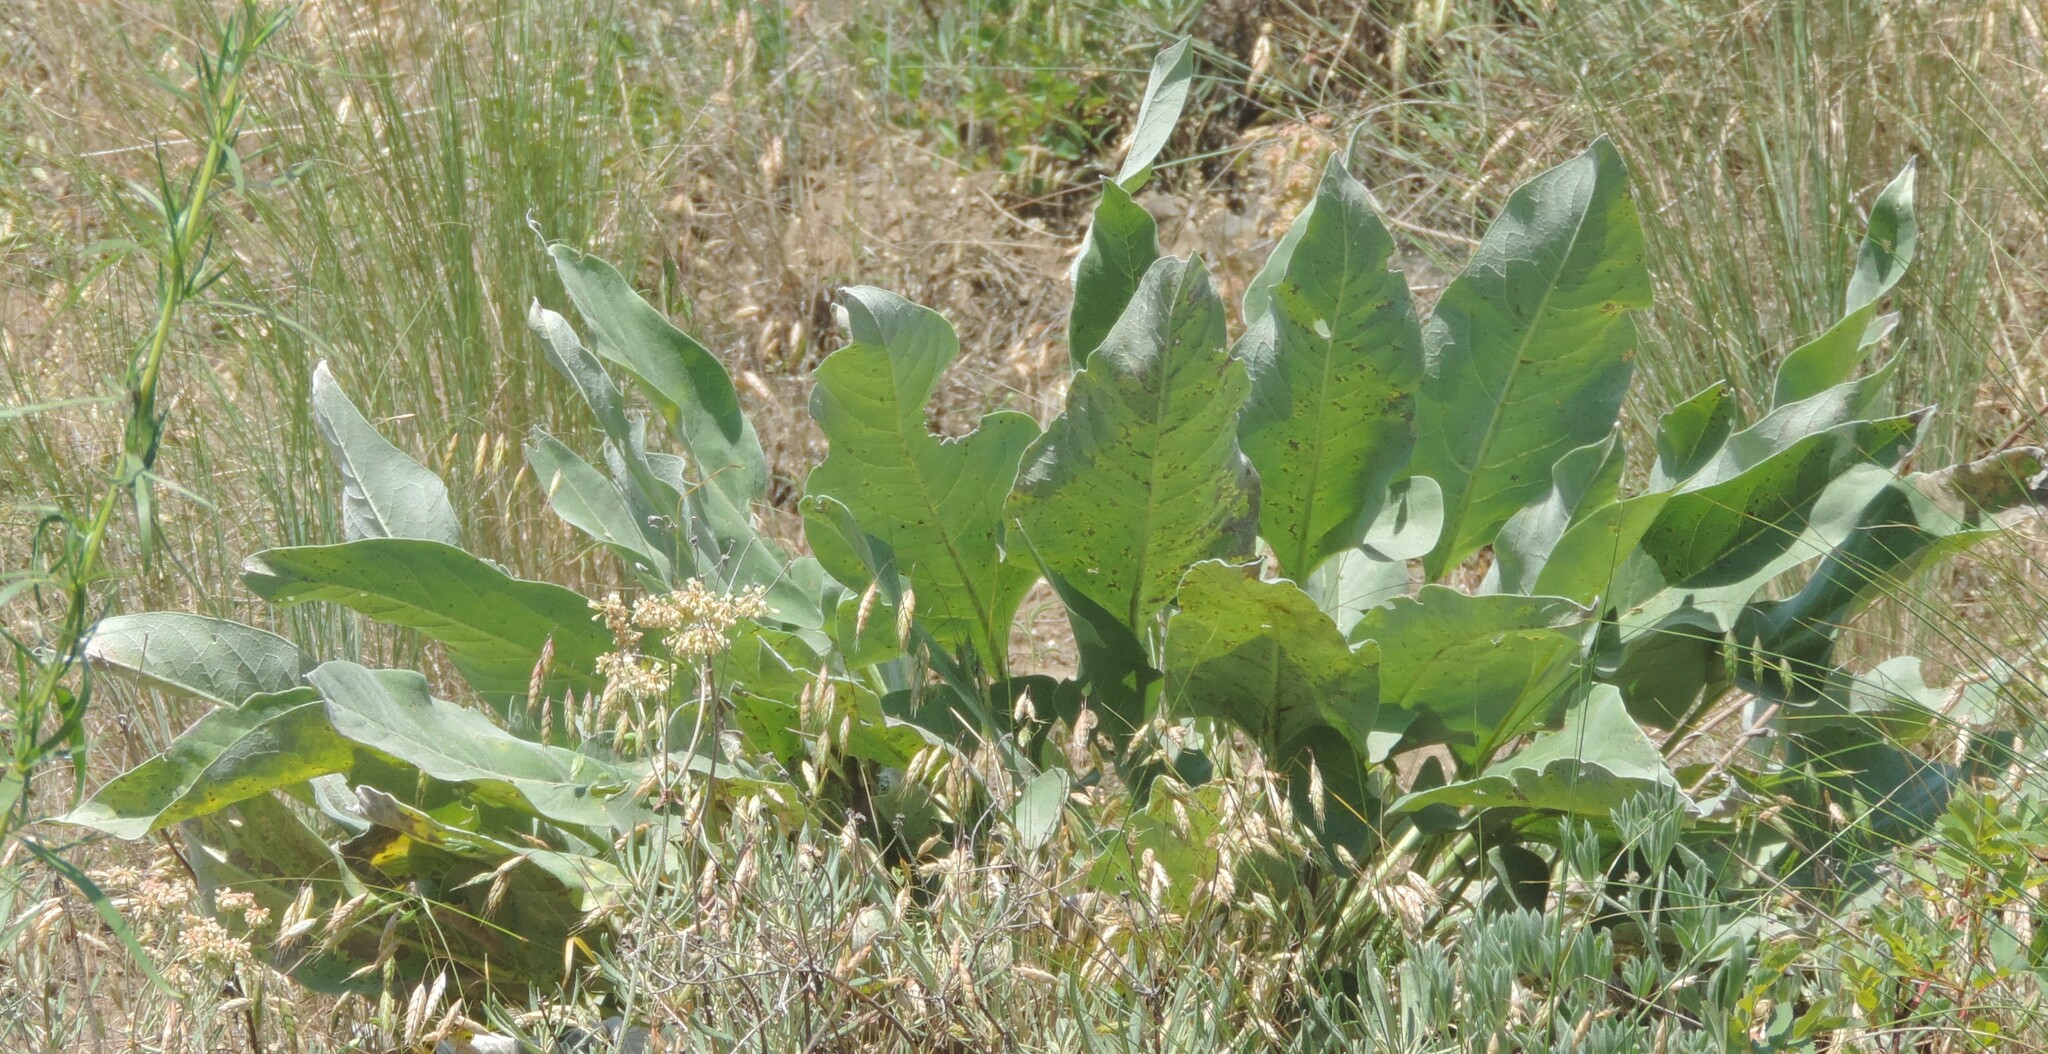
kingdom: Plantae
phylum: Tracheophyta
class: Magnoliopsida
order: Asterales
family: Asteraceae
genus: Wyethia
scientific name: Wyethia sagittata
